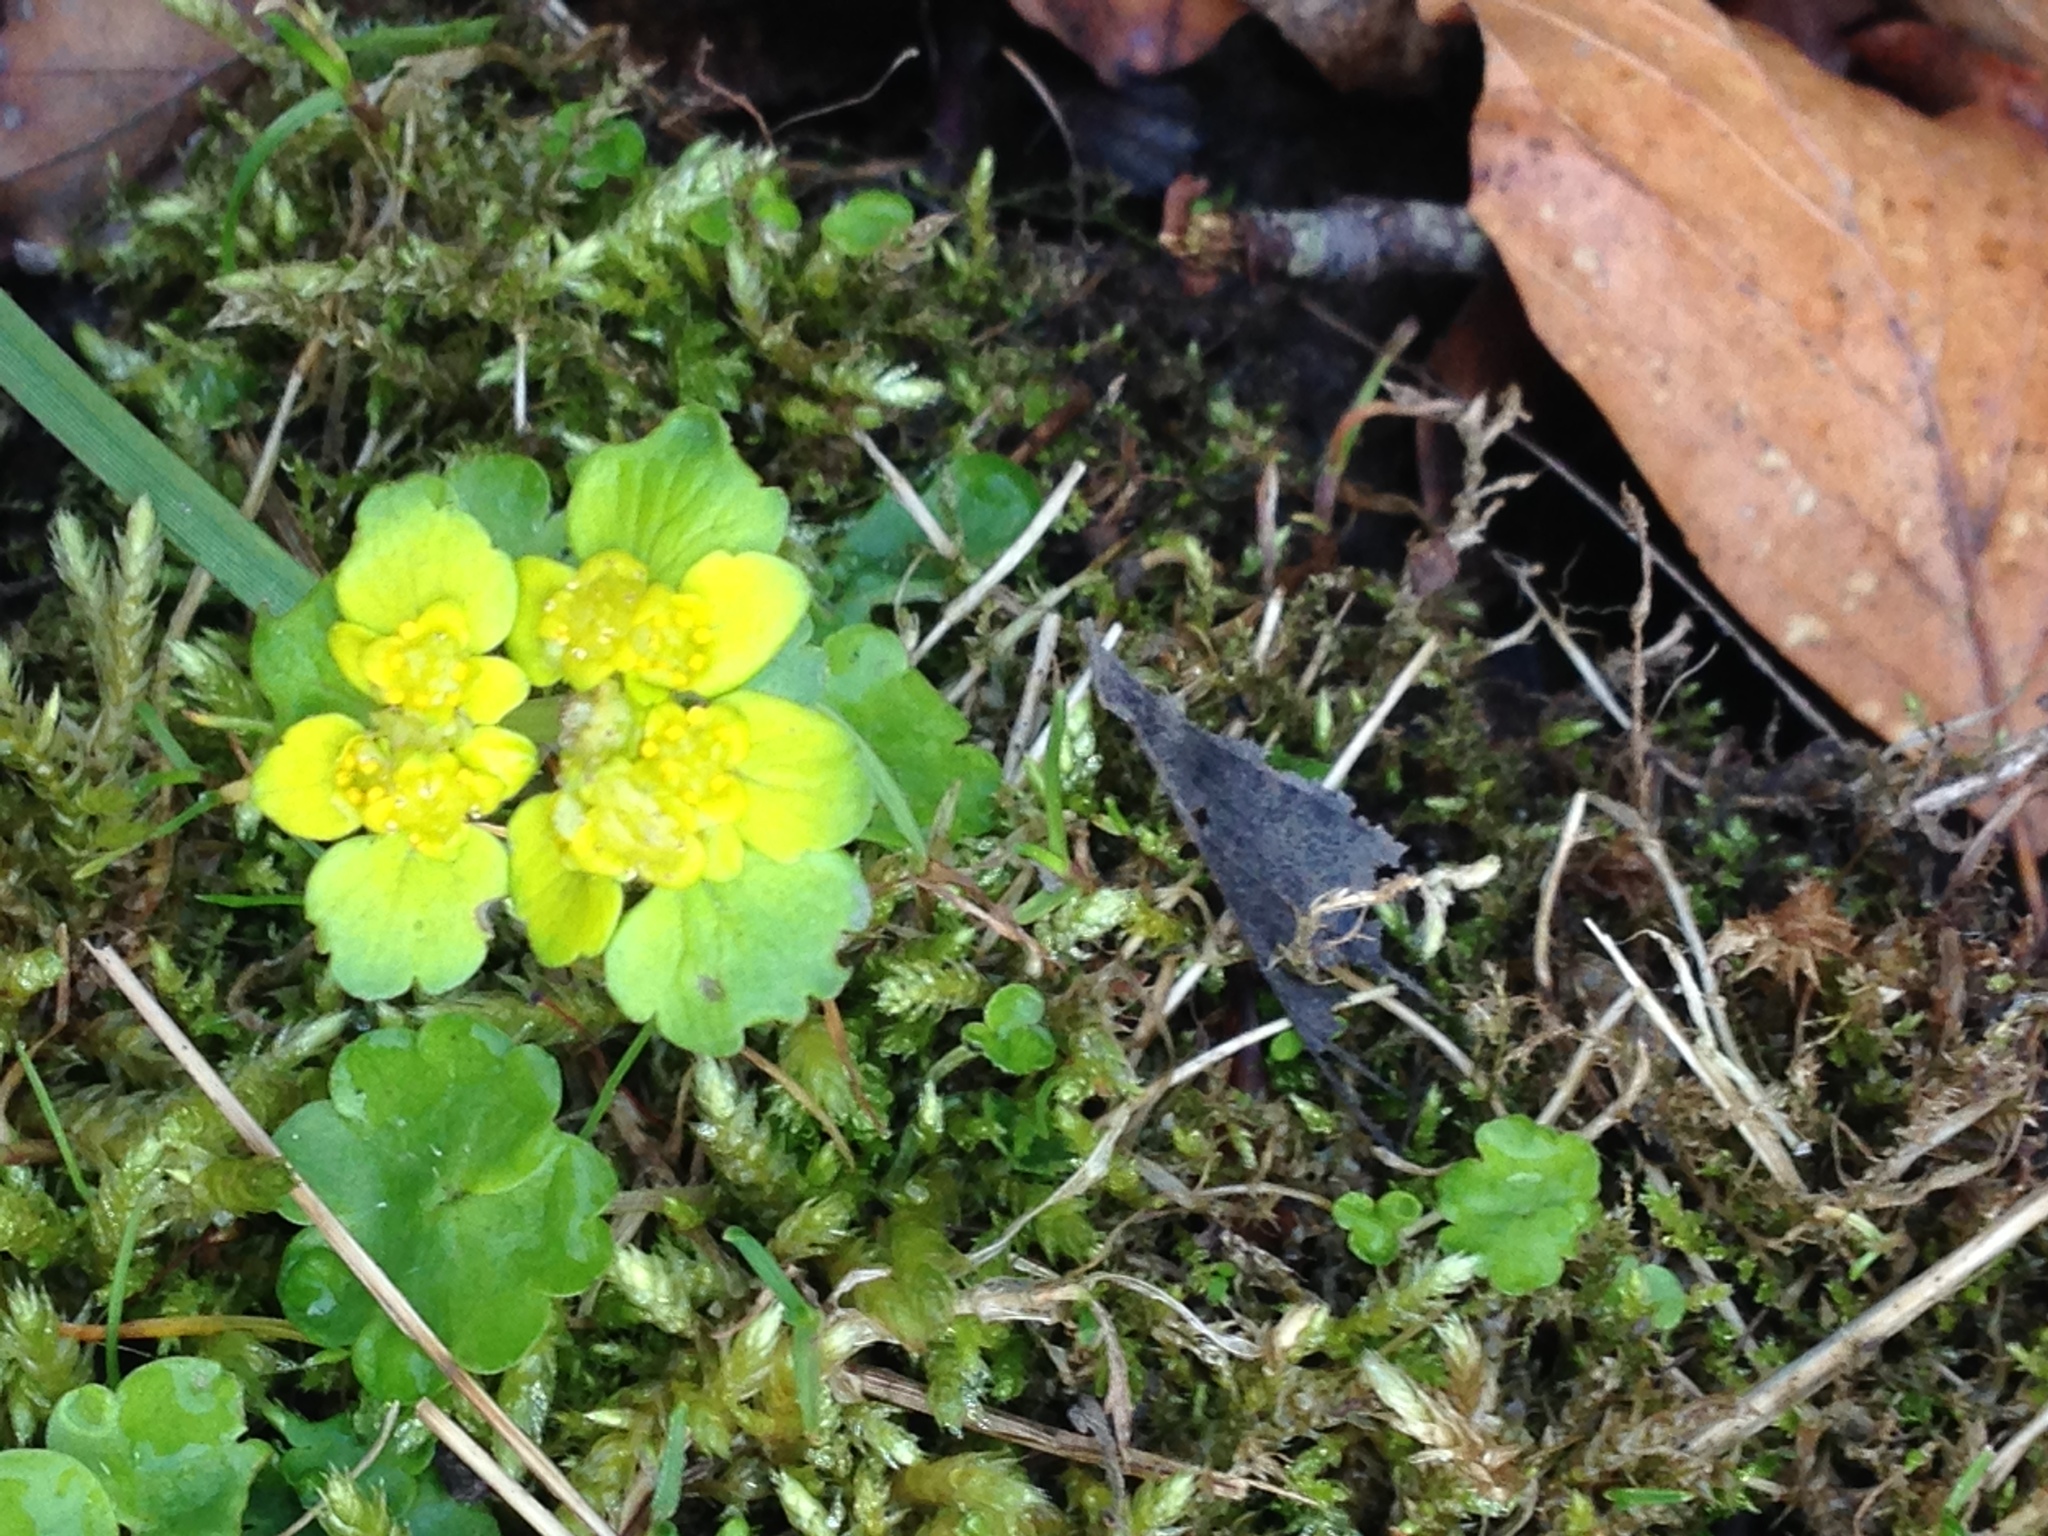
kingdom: Plantae
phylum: Tracheophyta
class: Magnoliopsida
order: Saxifragales
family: Saxifragaceae
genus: Chrysosplenium
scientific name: Chrysosplenium alternifolium
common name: Alternate-leaved golden-saxifrage
